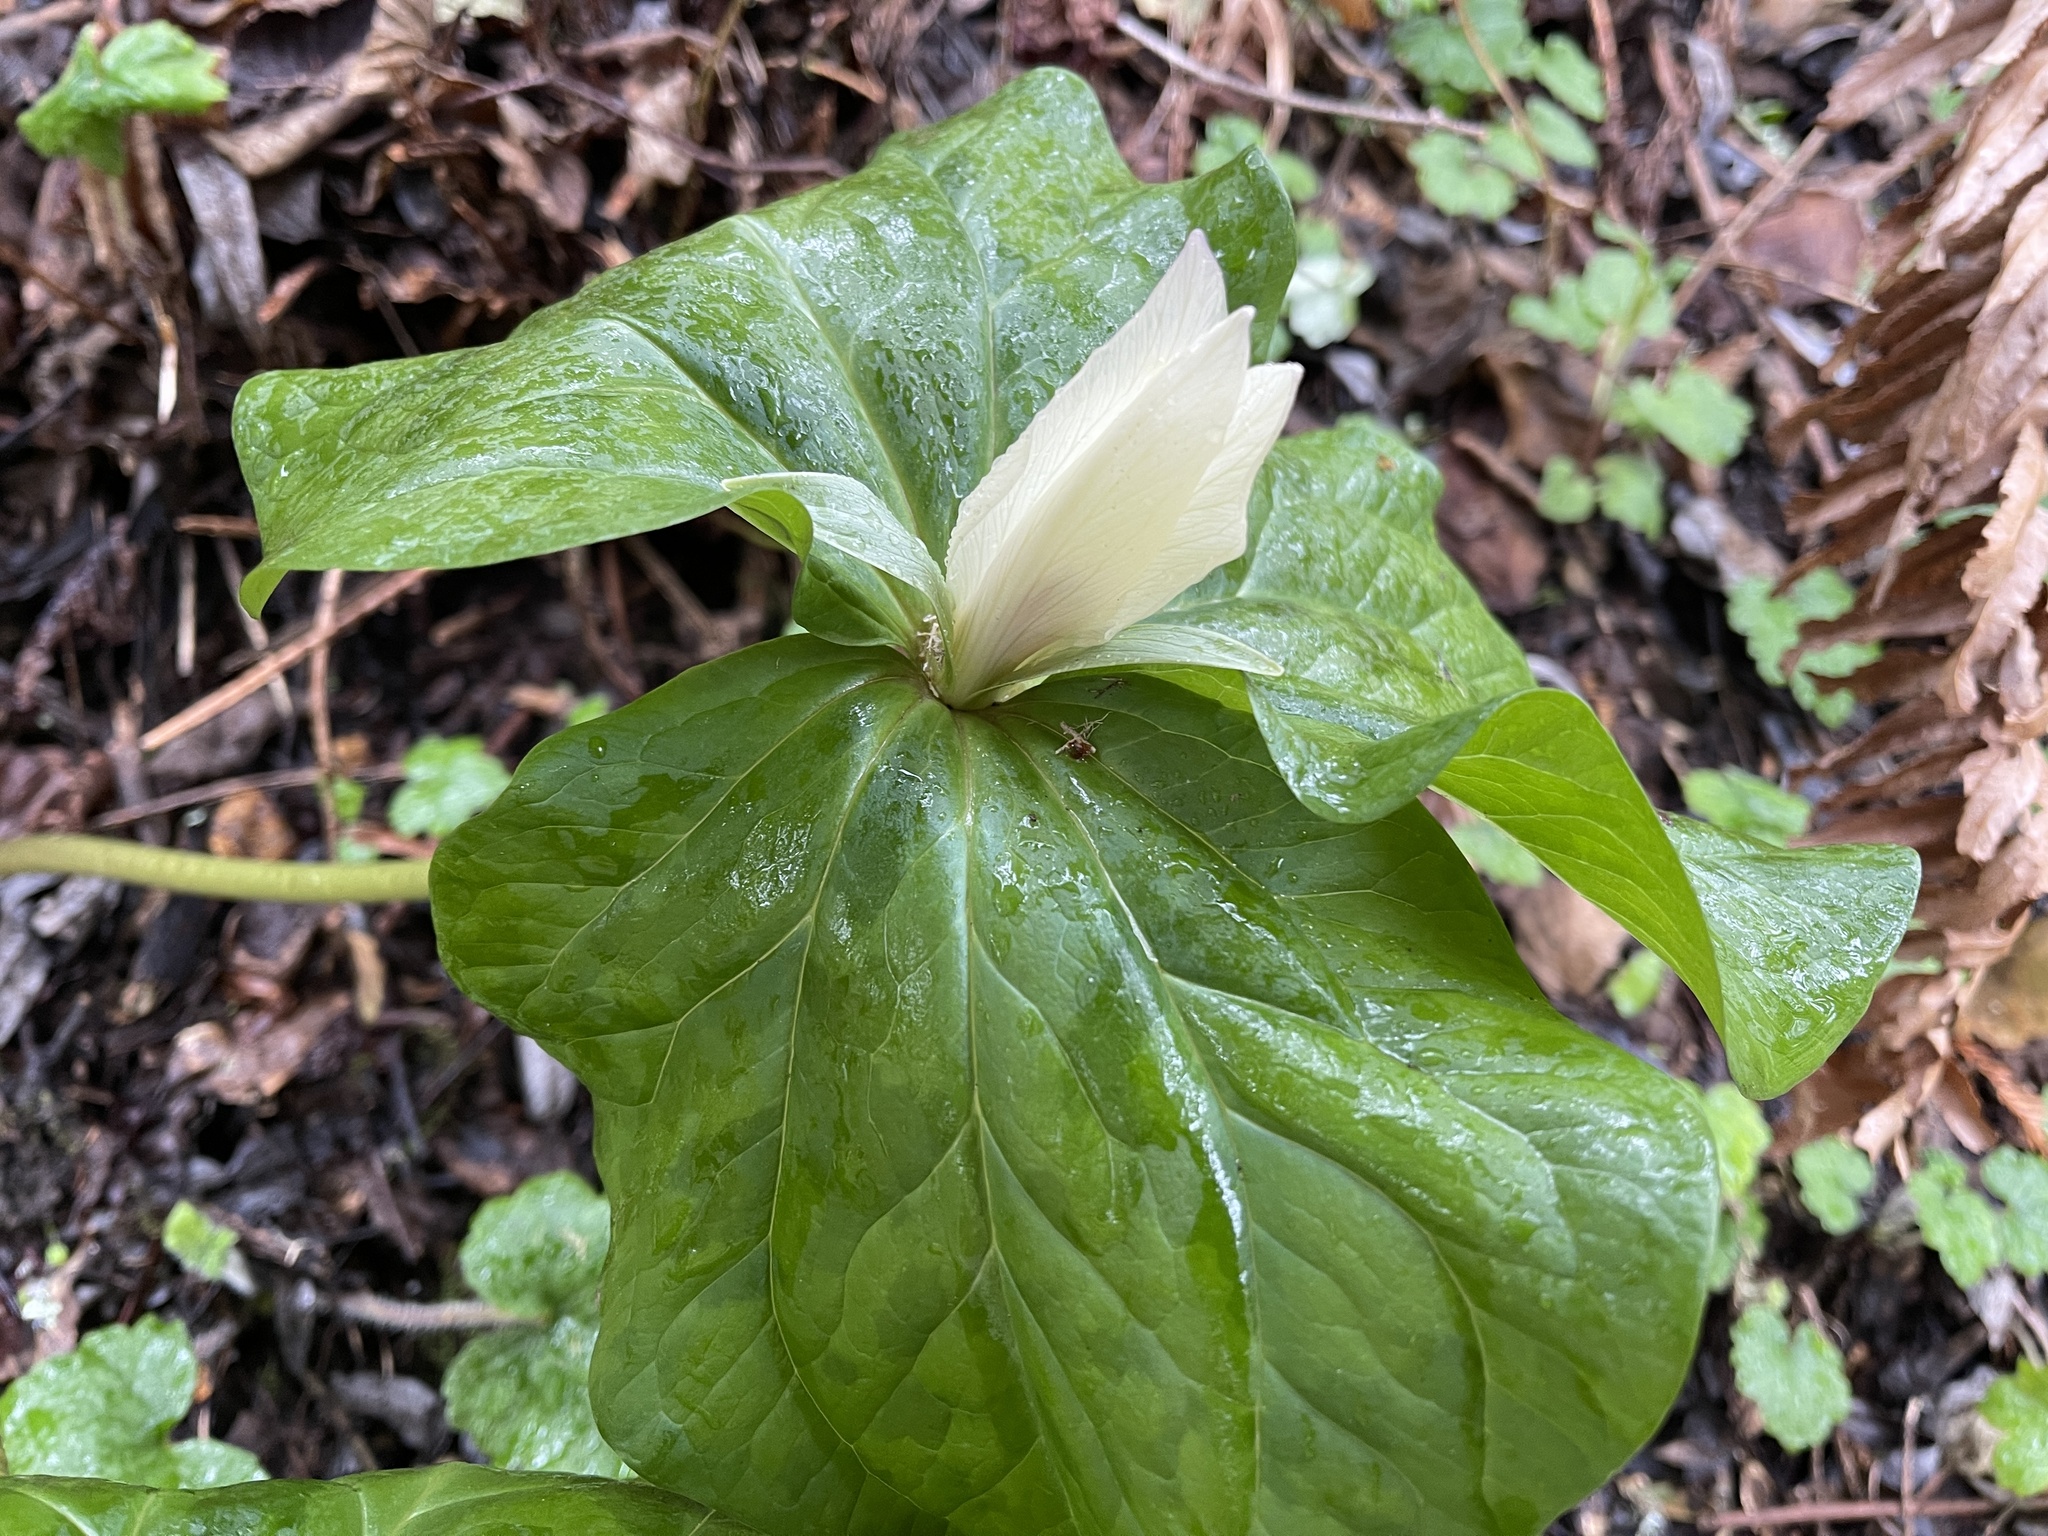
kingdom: Plantae
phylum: Tracheophyta
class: Liliopsida
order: Liliales
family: Melanthiaceae
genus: Trillium
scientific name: Trillium chloropetalum
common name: Giant trillium
